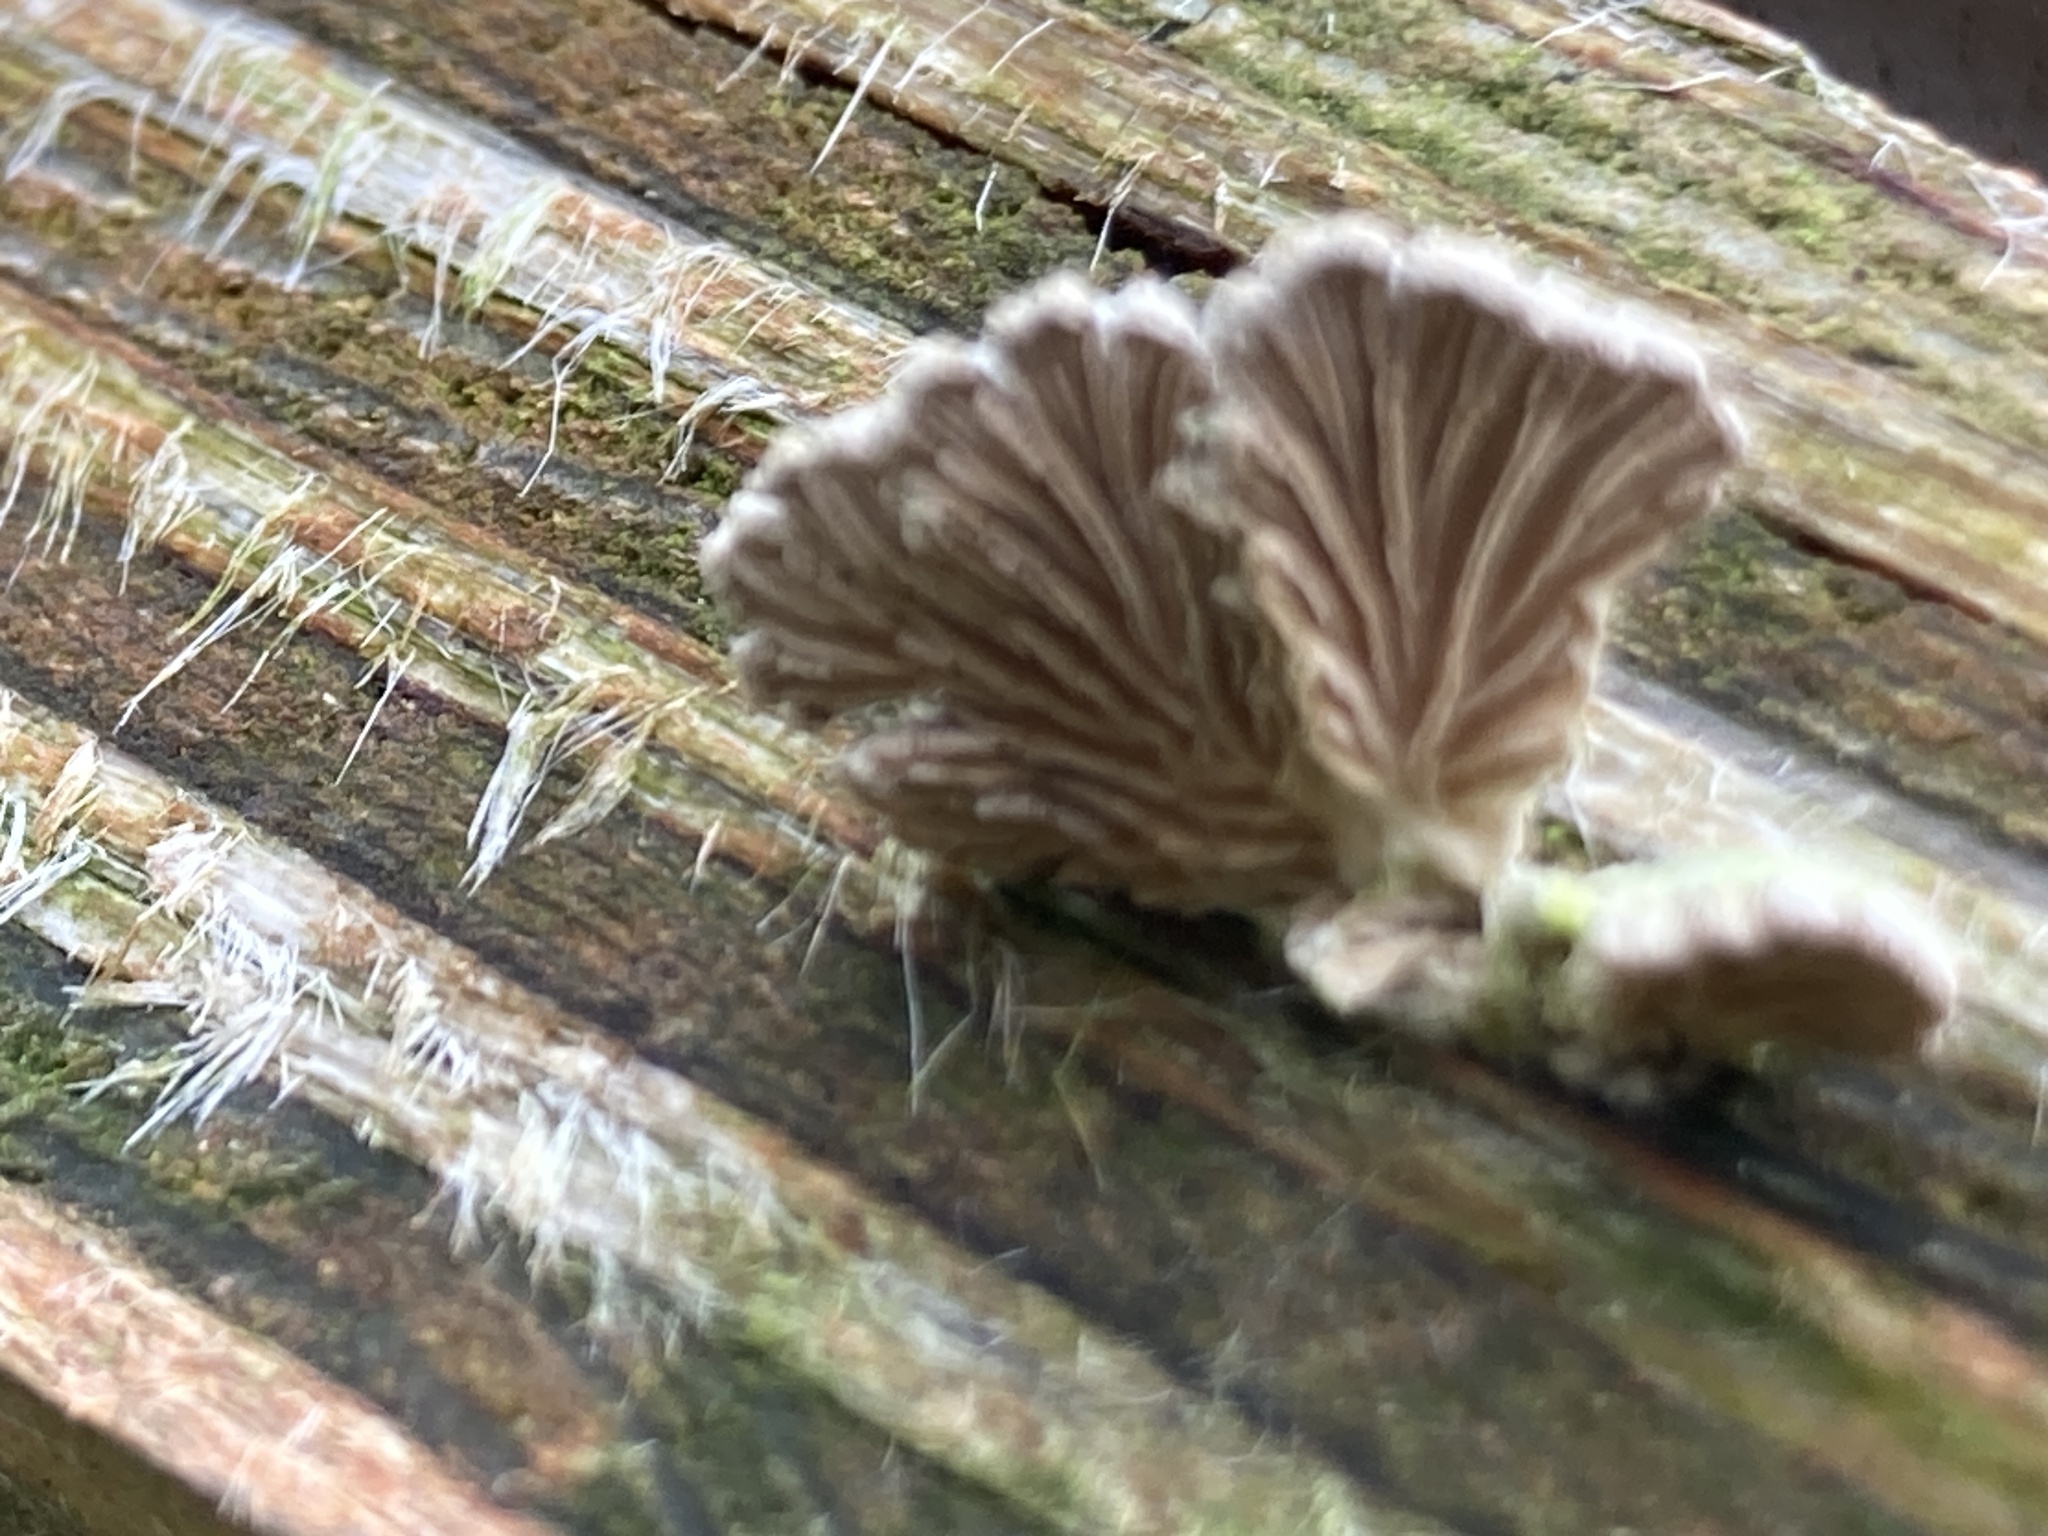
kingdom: Fungi
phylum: Basidiomycota
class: Agaricomycetes
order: Agaricales
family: Schizophyllaceae
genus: Schizophyllum
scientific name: Schizophyllum commune
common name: Common porecrust
